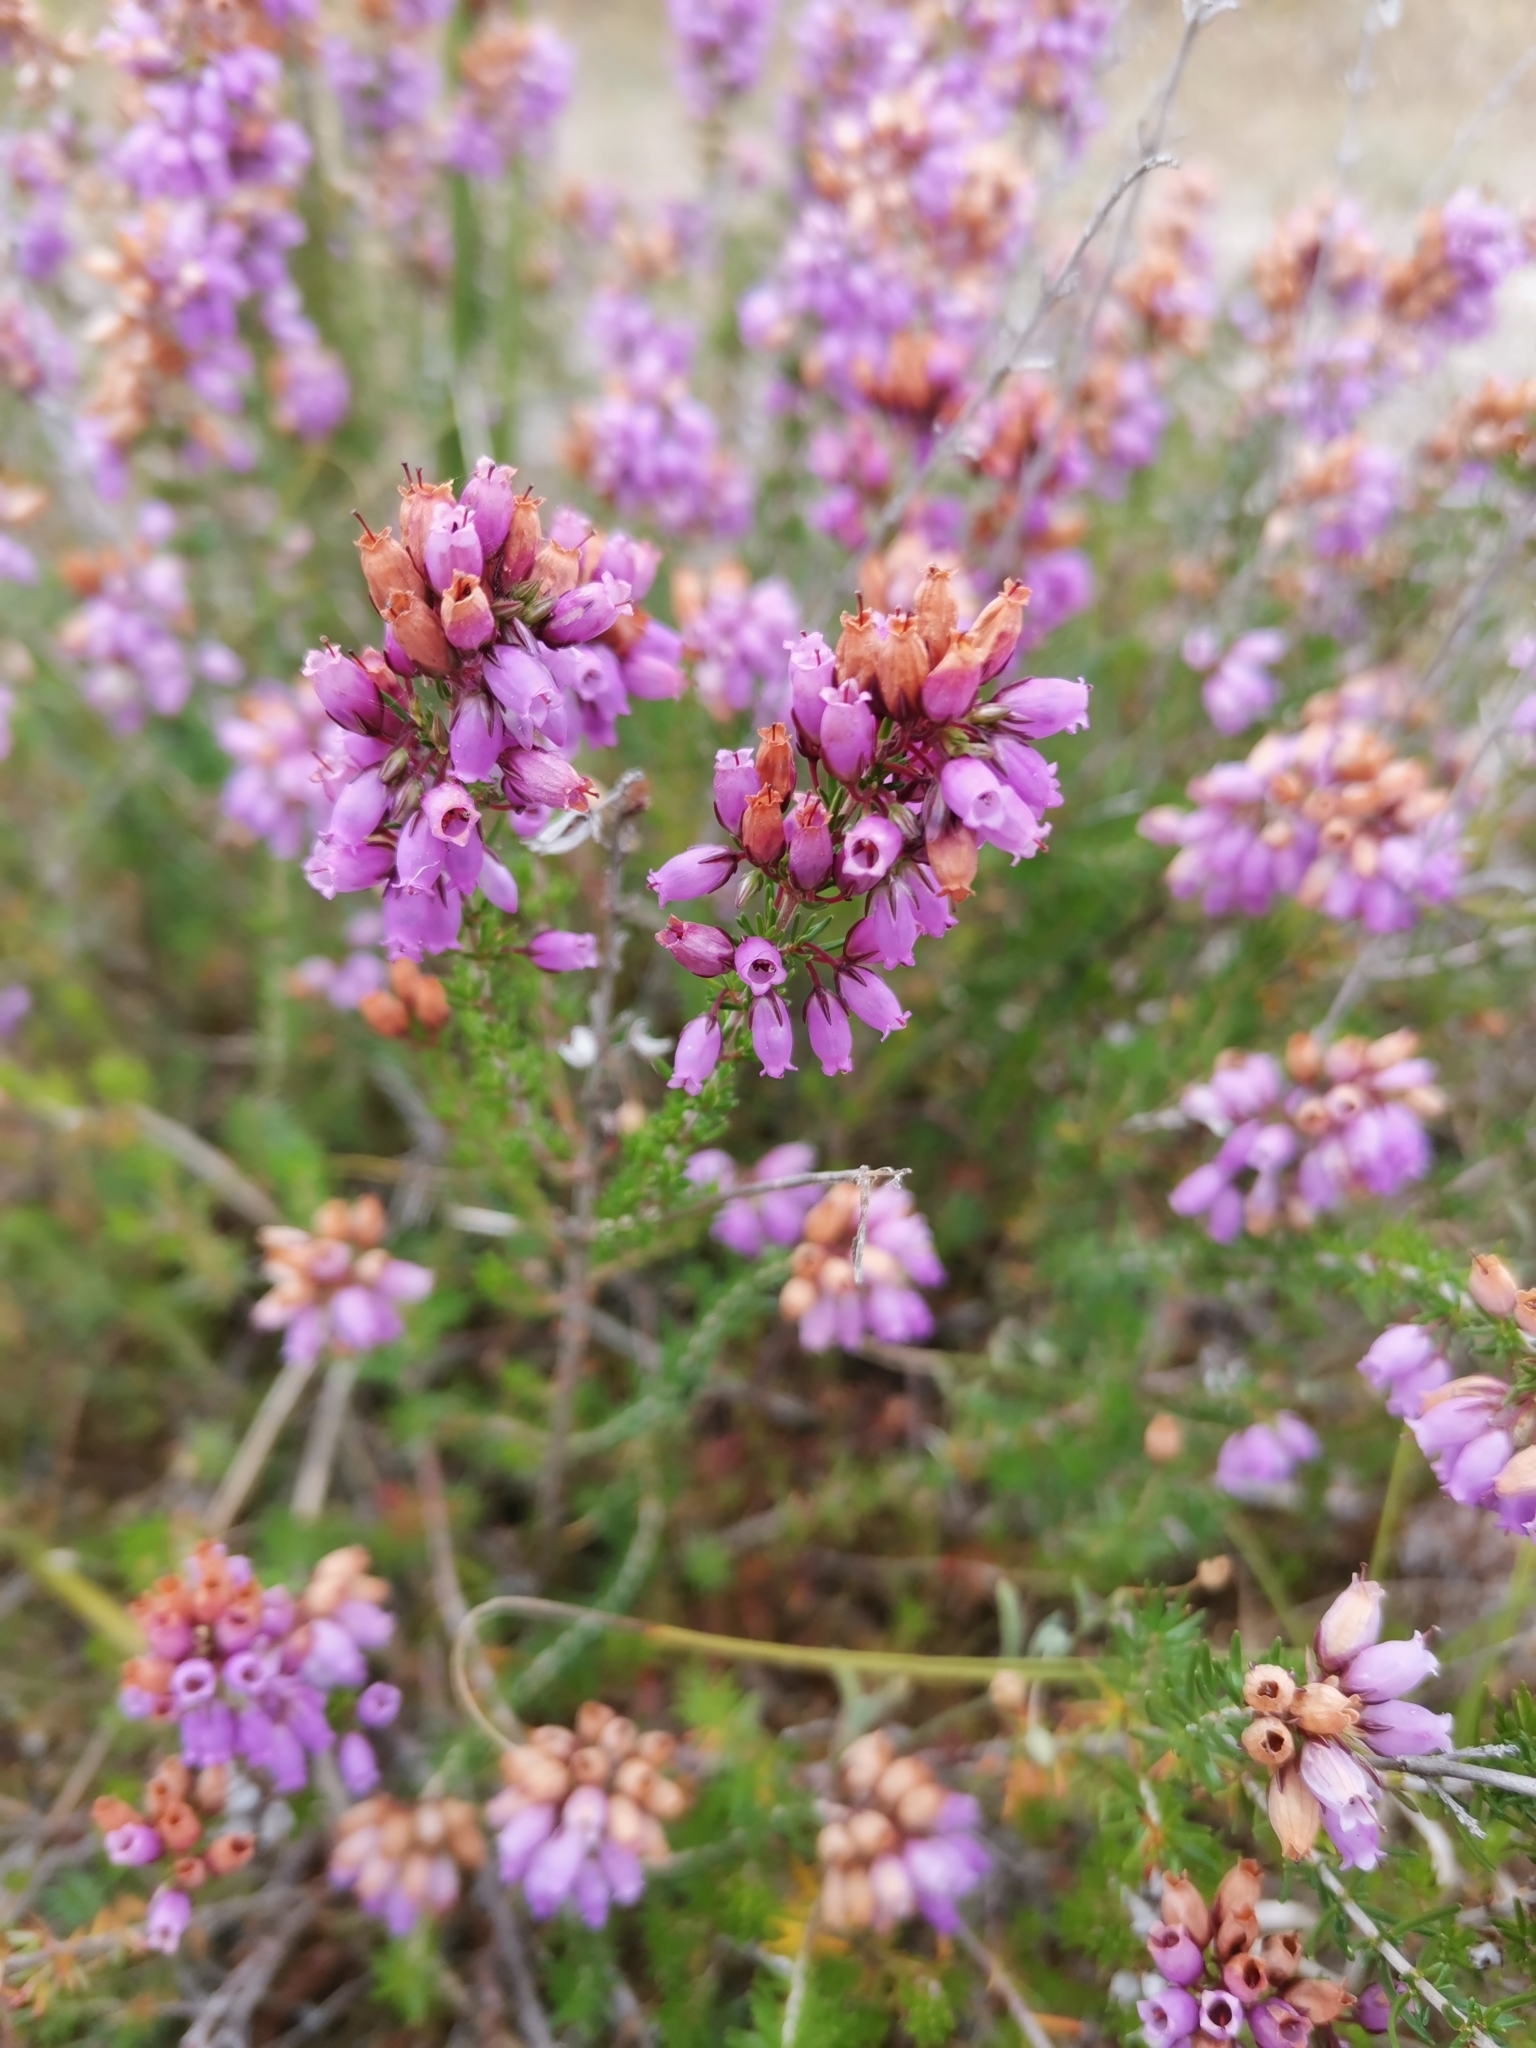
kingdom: Plantae
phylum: Tracheophyta
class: Magnoliopsida
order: Ericales
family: Ericaceae
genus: Erica
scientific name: Erica cinerea
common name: Bell heather
